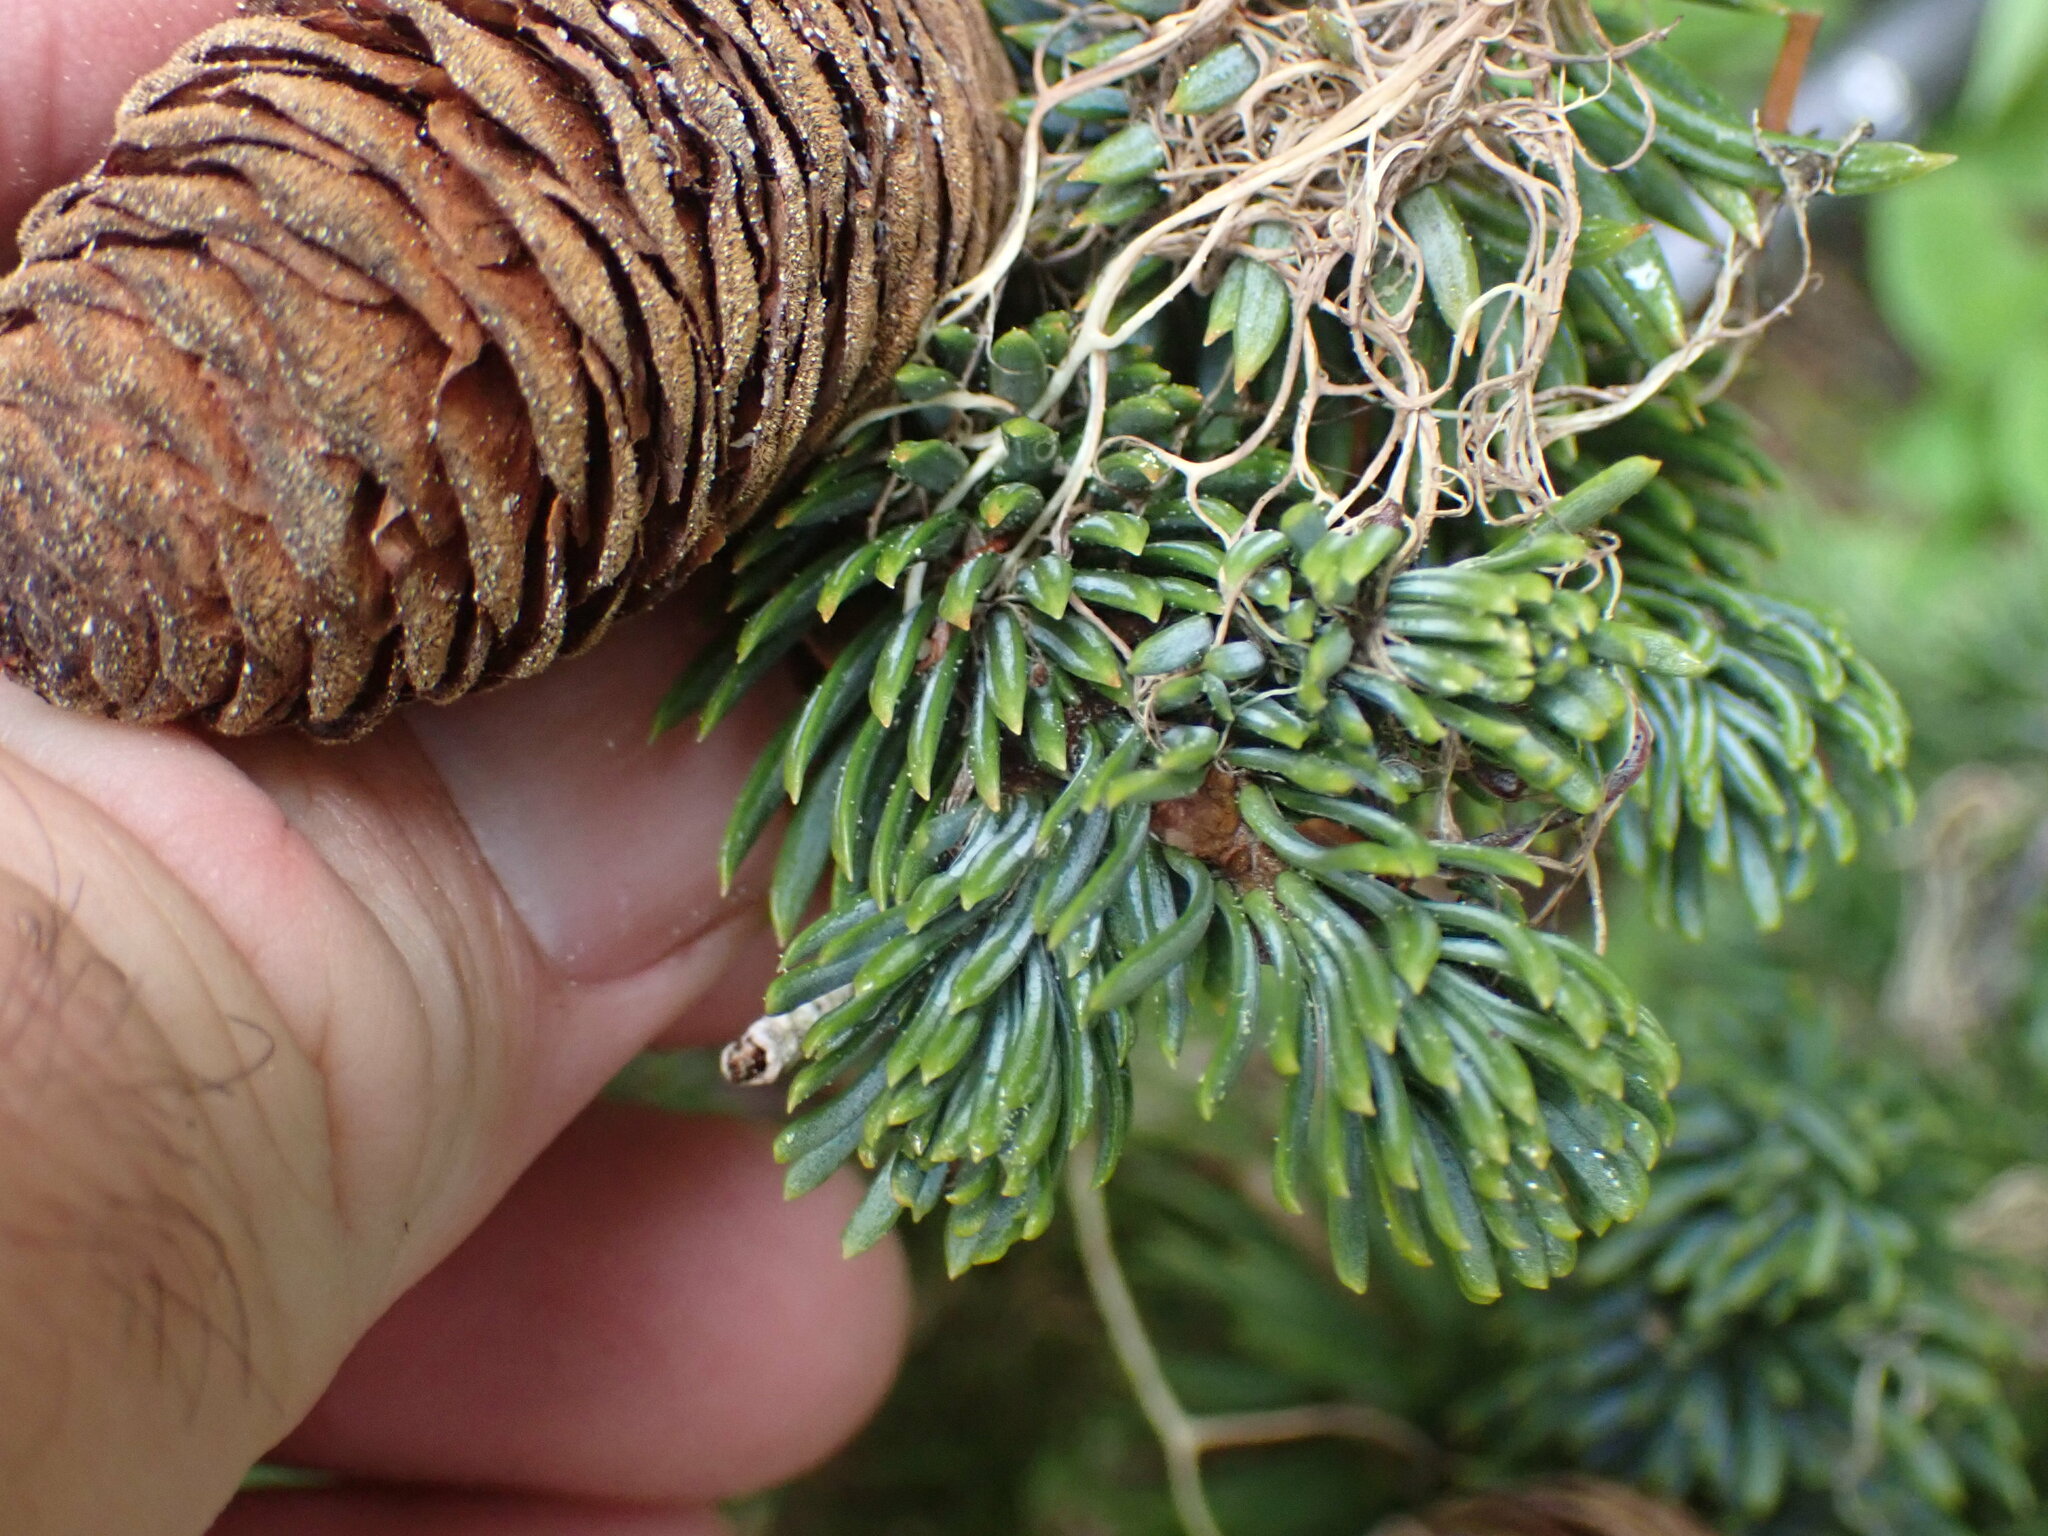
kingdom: Plantae
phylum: Tracheophyta
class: Pinopsida
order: Pinales
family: Pinaceae
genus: Abies
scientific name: Abies lasiocarpa
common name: Subalpine fir
